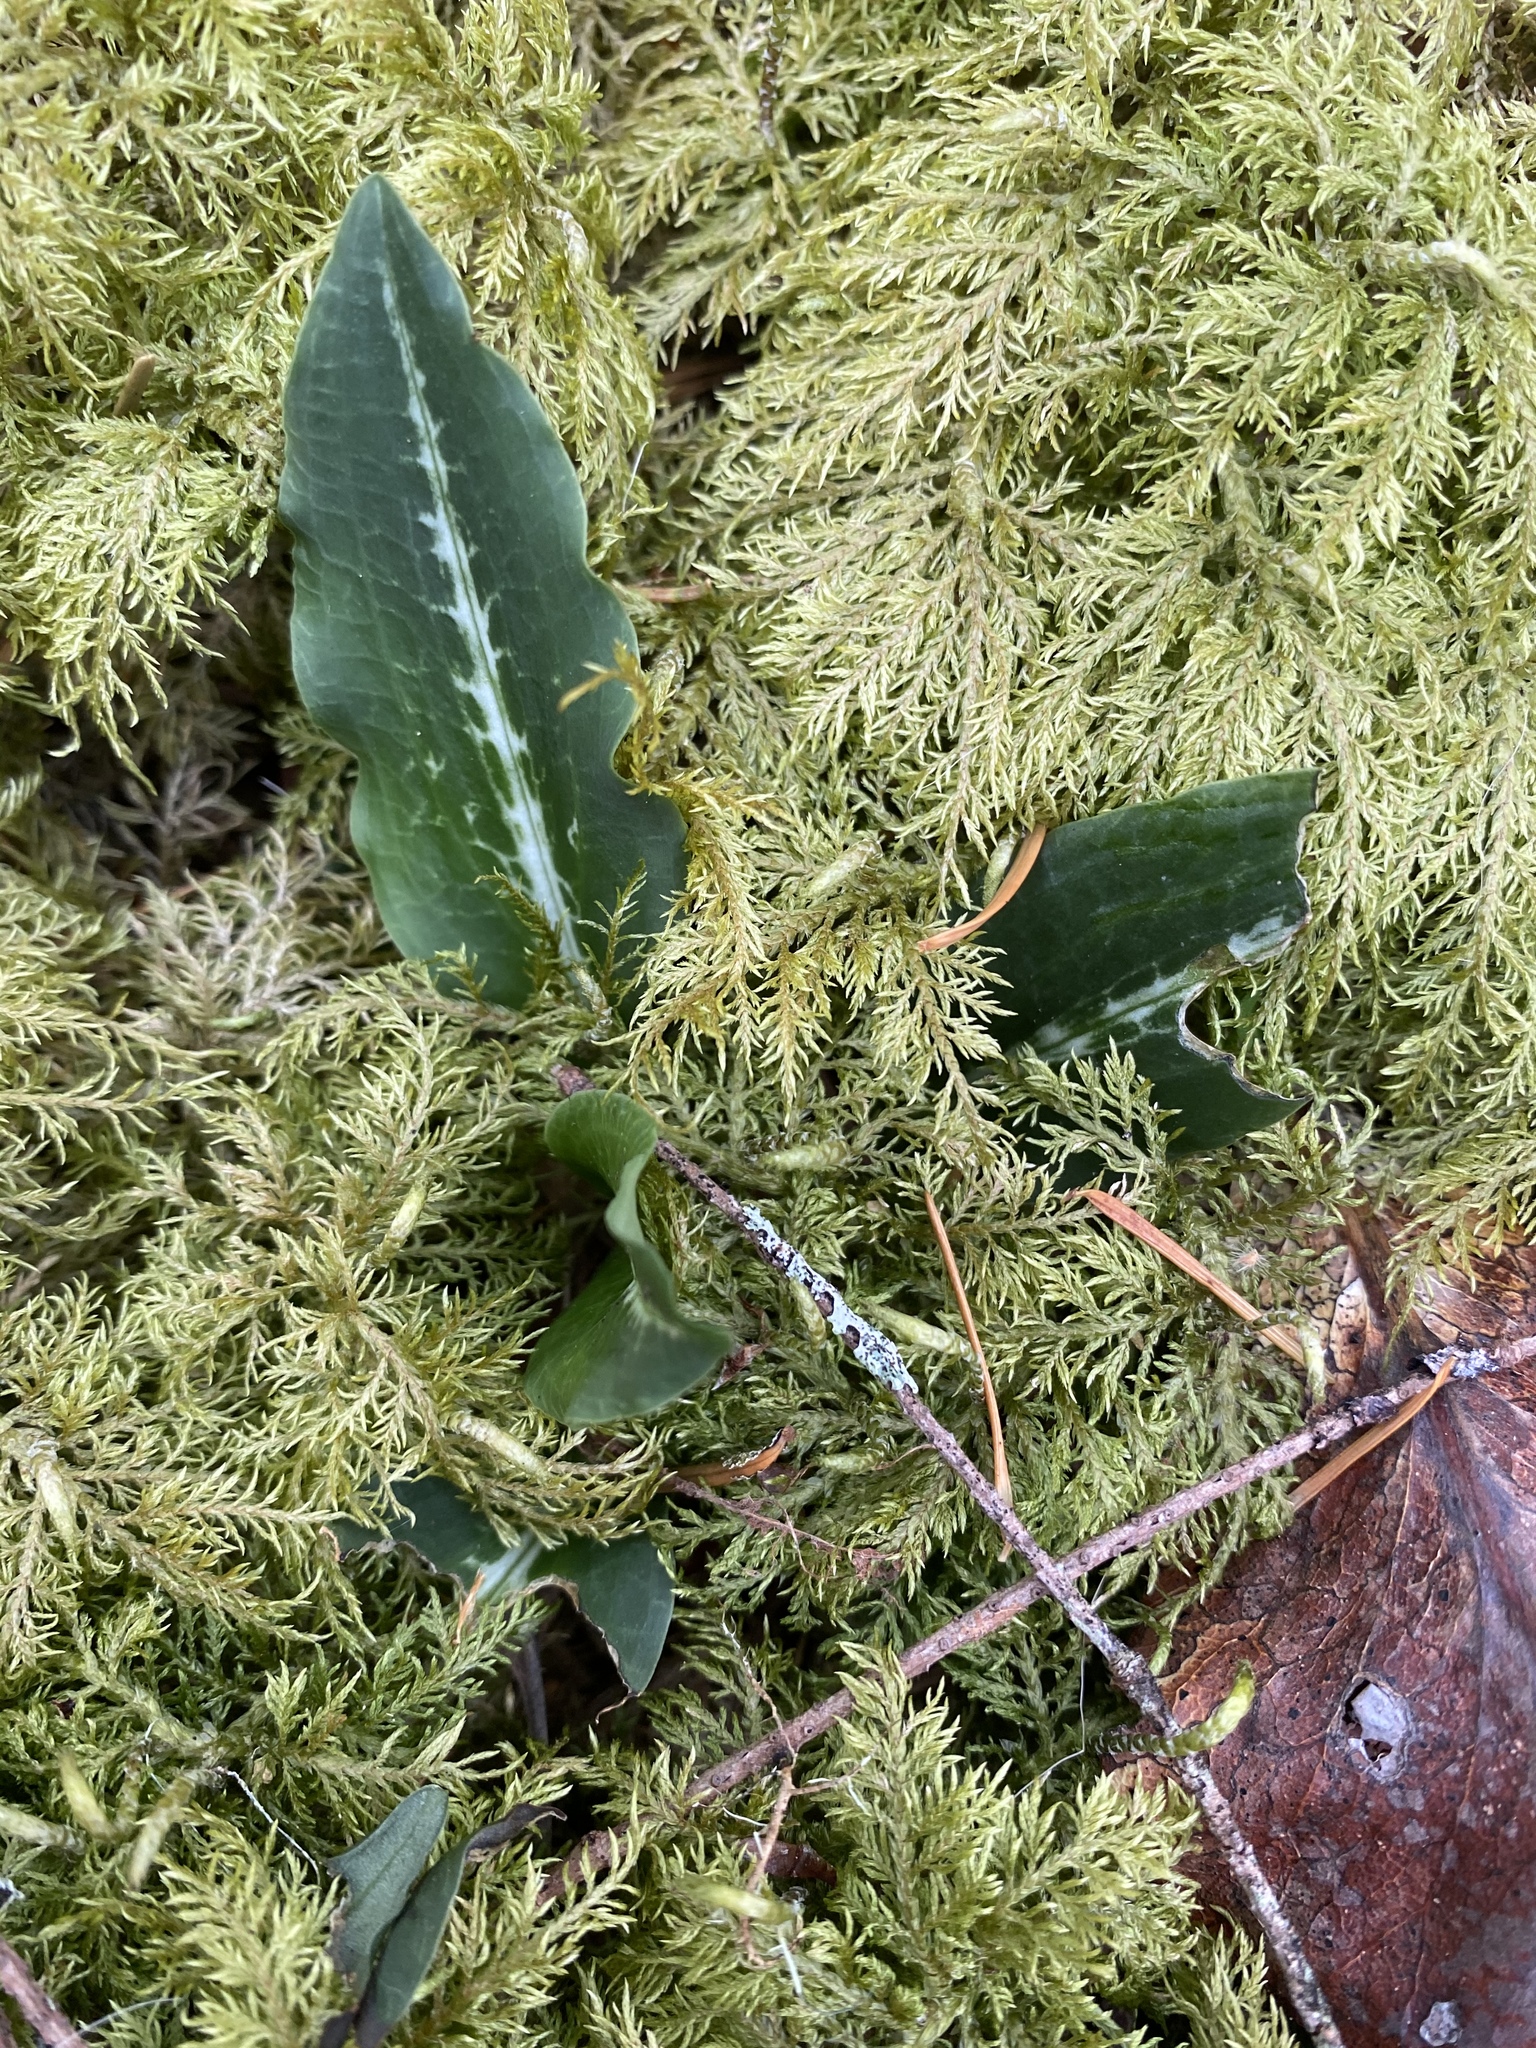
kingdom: Plantae
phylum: Tracheophyta
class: Liliopsida
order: Asparagales
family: Orchidaceae
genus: Goodyera
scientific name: Goodyera oblongifolia
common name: Giant rattlesnake-plantain
